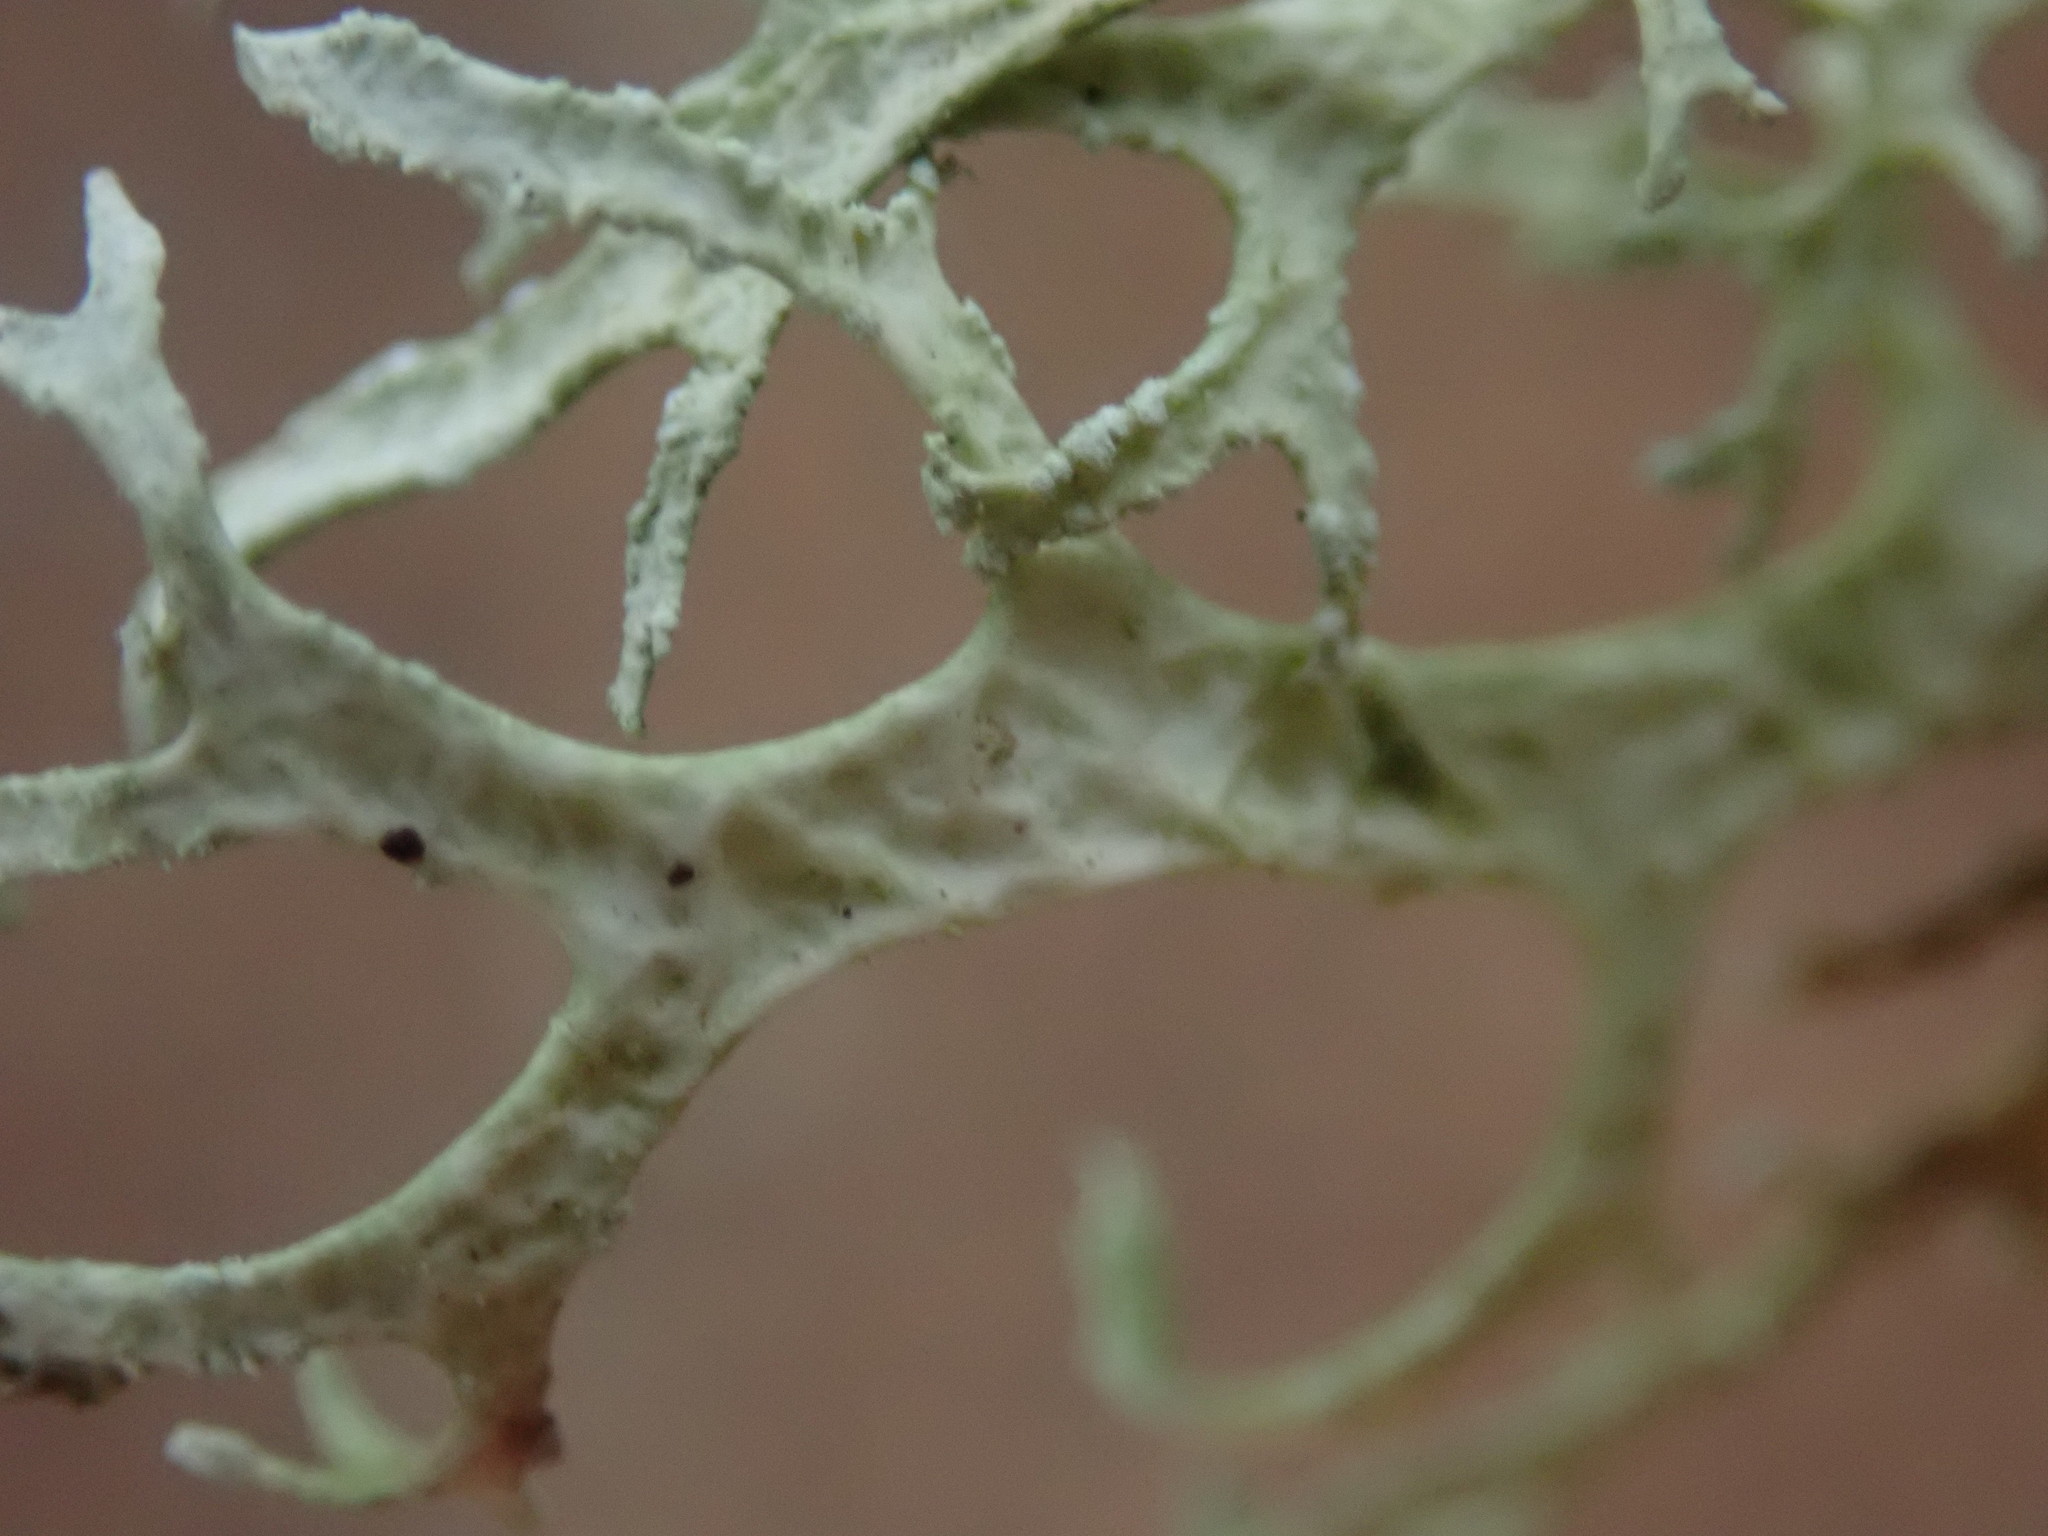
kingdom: Fungi
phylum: Ascomycota
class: Lecanoromycetes
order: Lecanorales
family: Parmeliaceae
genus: Evernia
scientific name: Evernia prunastri
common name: Oak moss
